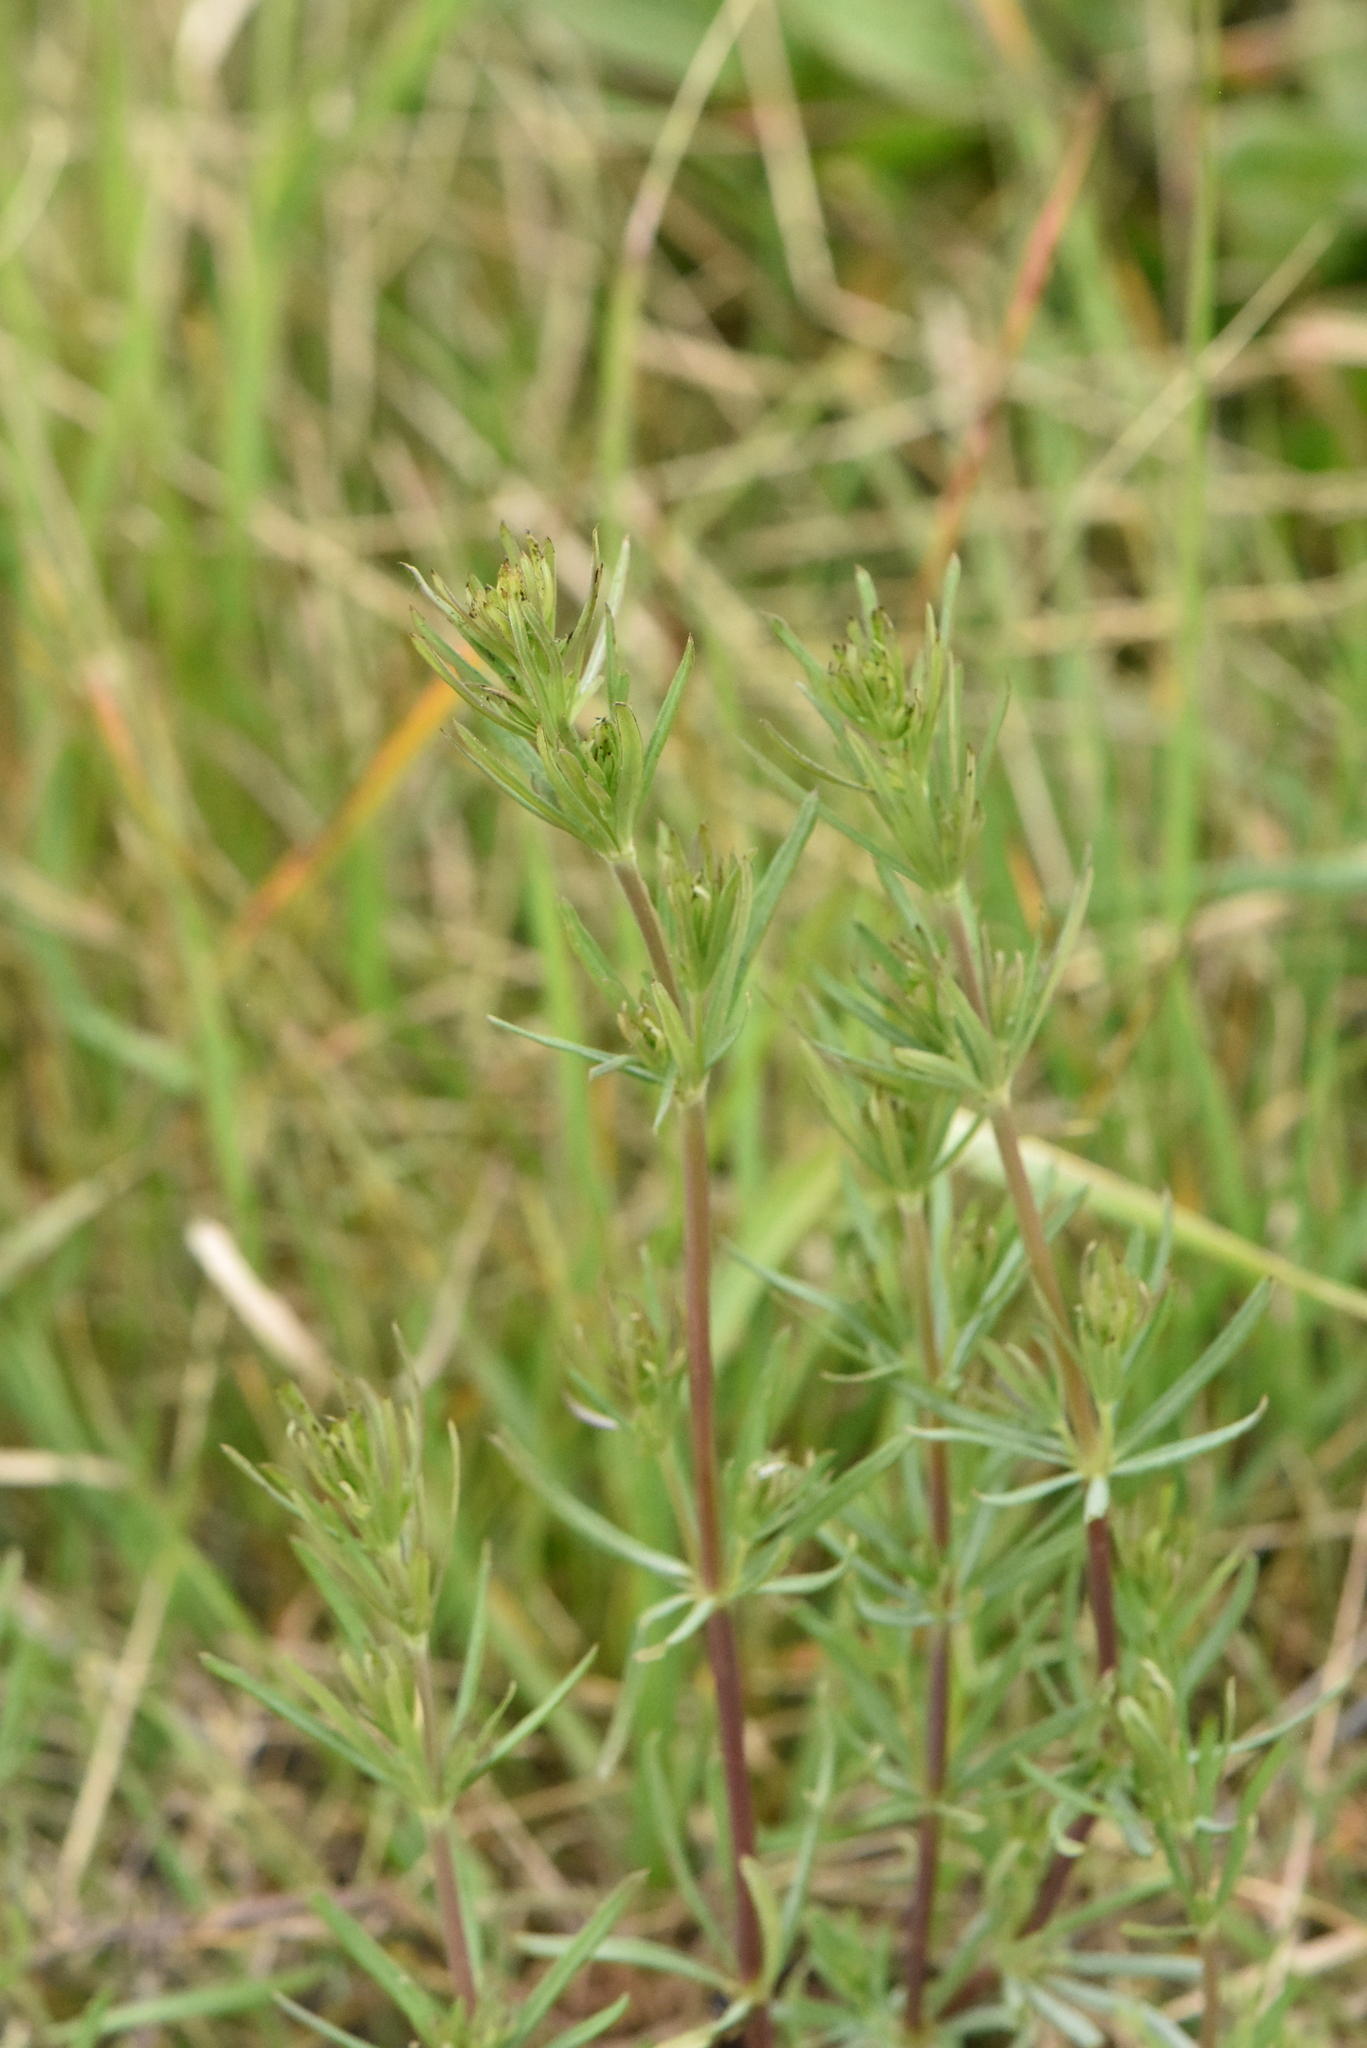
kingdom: Plantae
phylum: Tracheophyta
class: Magnoliopsida
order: Gentianales
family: Rubiaceae
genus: Galium
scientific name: Galium verum
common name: Lady's bedstraw
